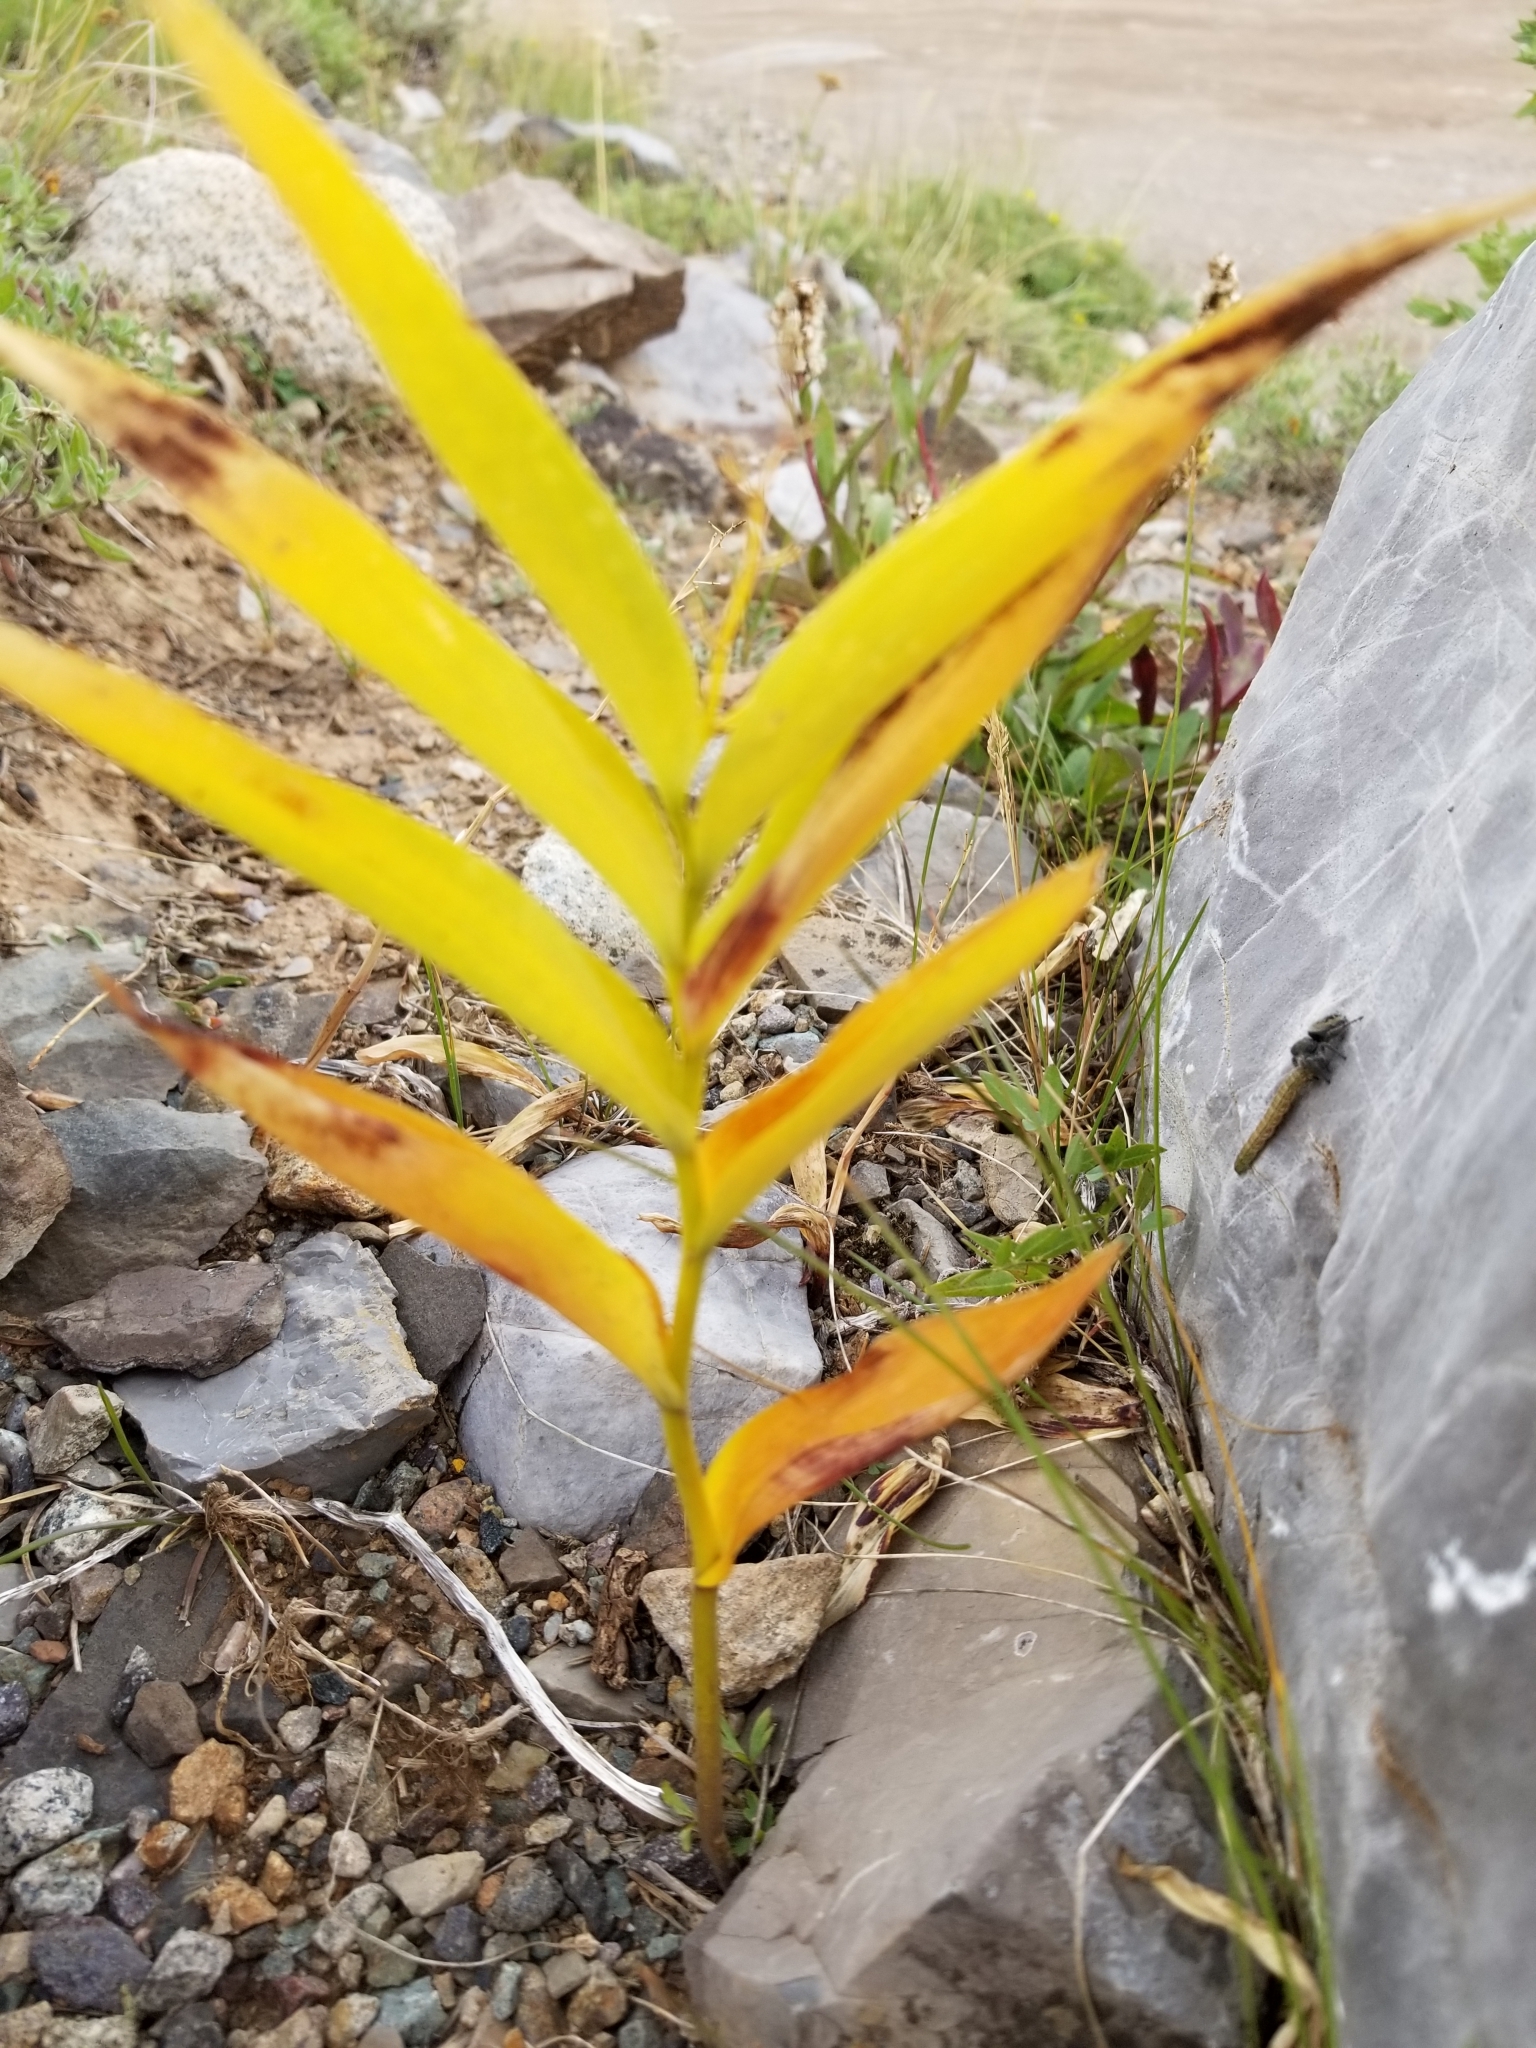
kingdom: Plantae
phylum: Tracheophyta
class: Liliopsida
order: Asparagales
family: Asparagaceae
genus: Maianthemum
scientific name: Maianthemum stellatum
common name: Little false solomon's seal
